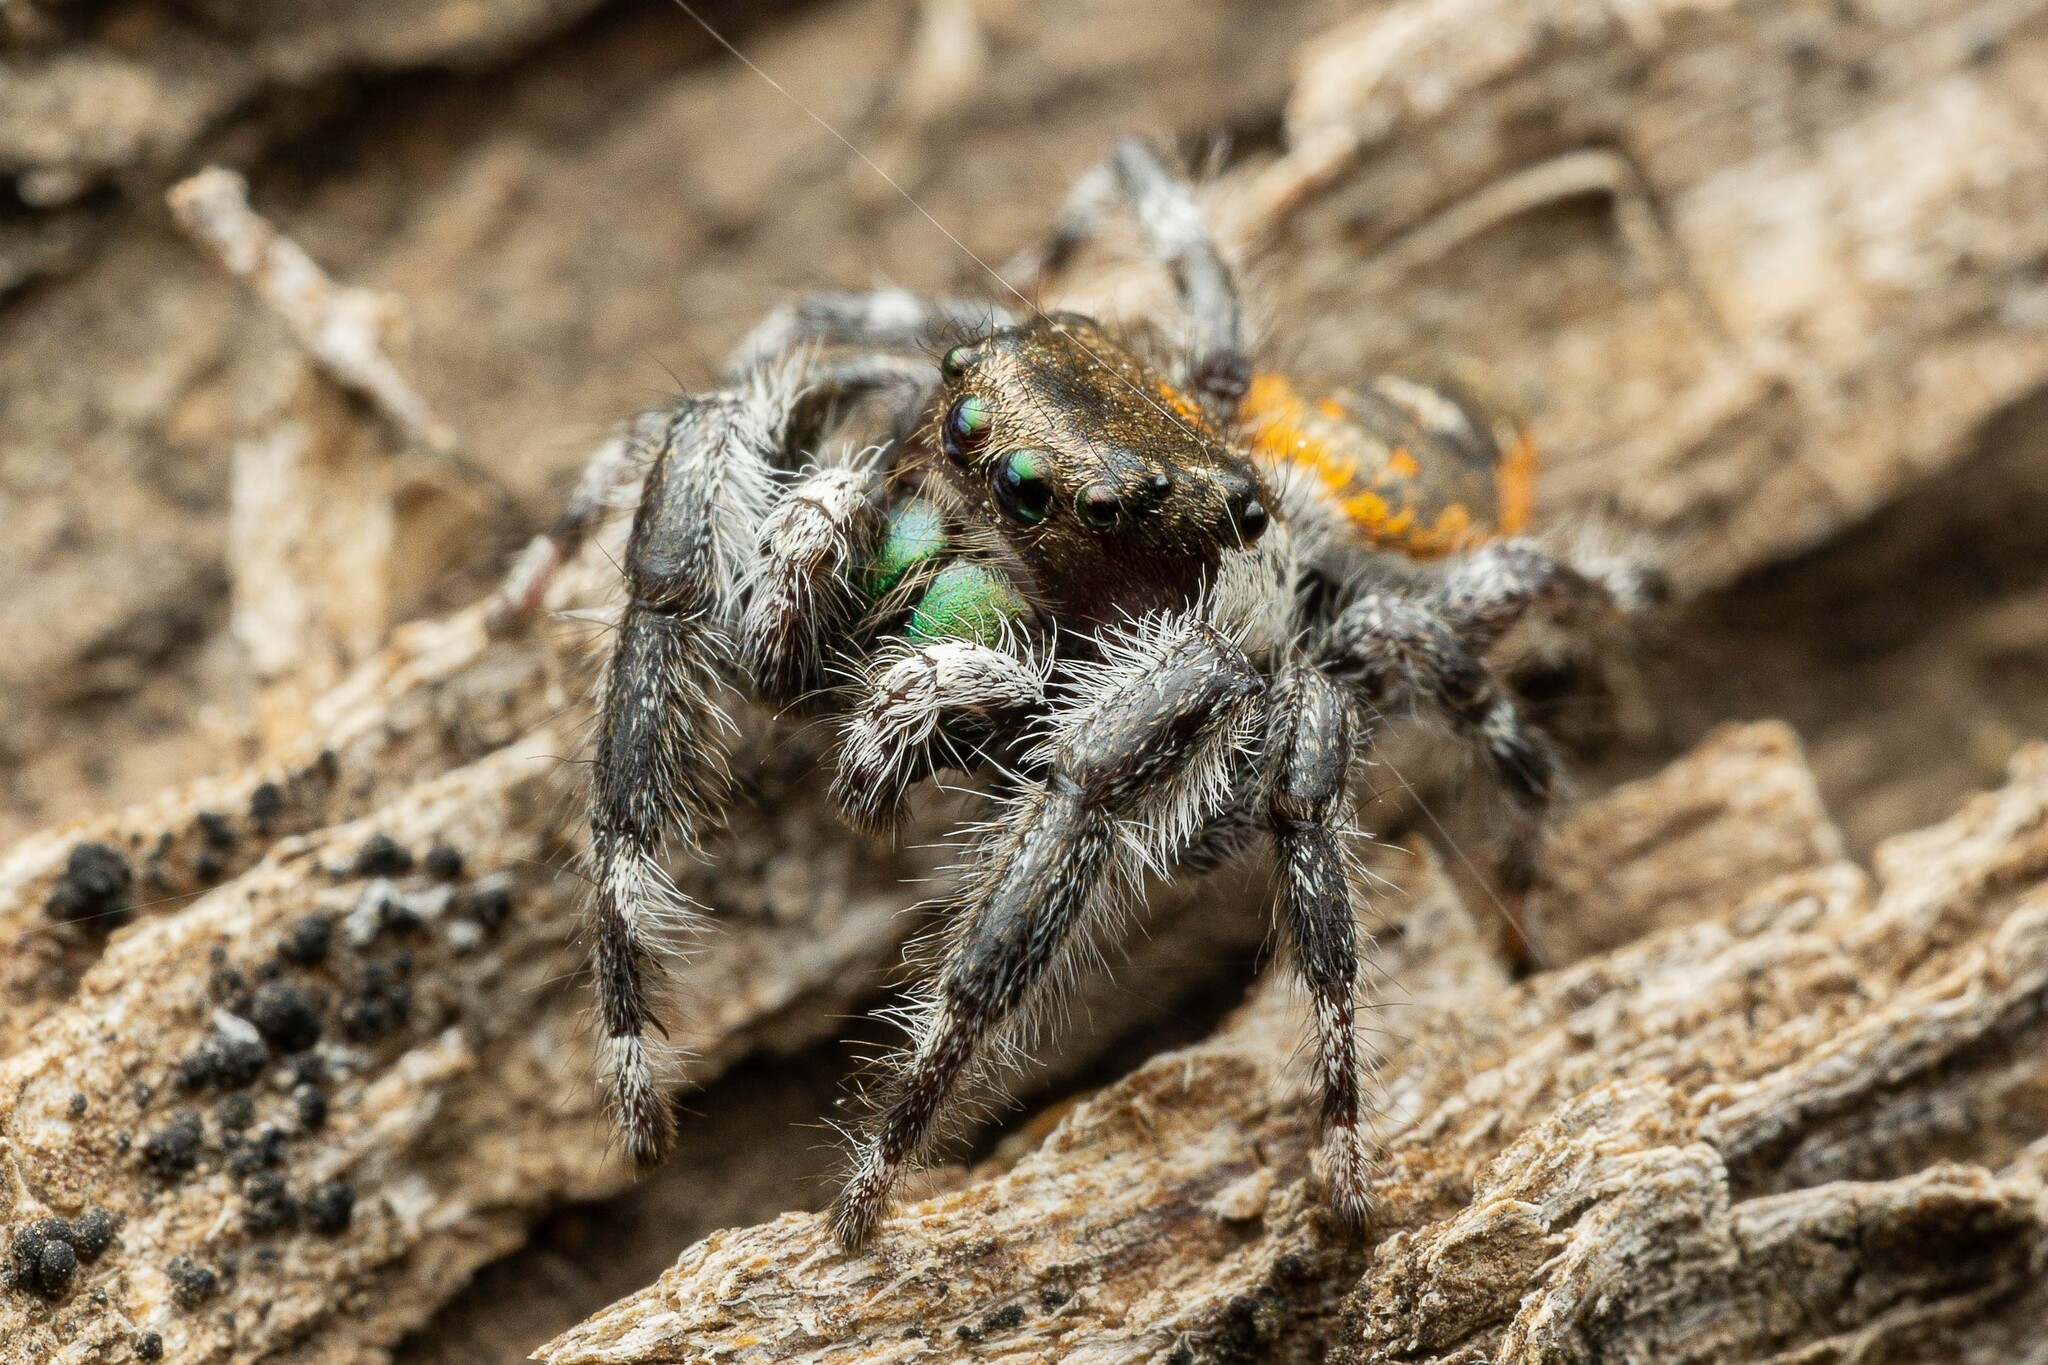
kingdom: Animalia
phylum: Arthropoda
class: Arachnida
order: Araneae
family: Salticidae
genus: Phidippus
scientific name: Phidippus californicus
